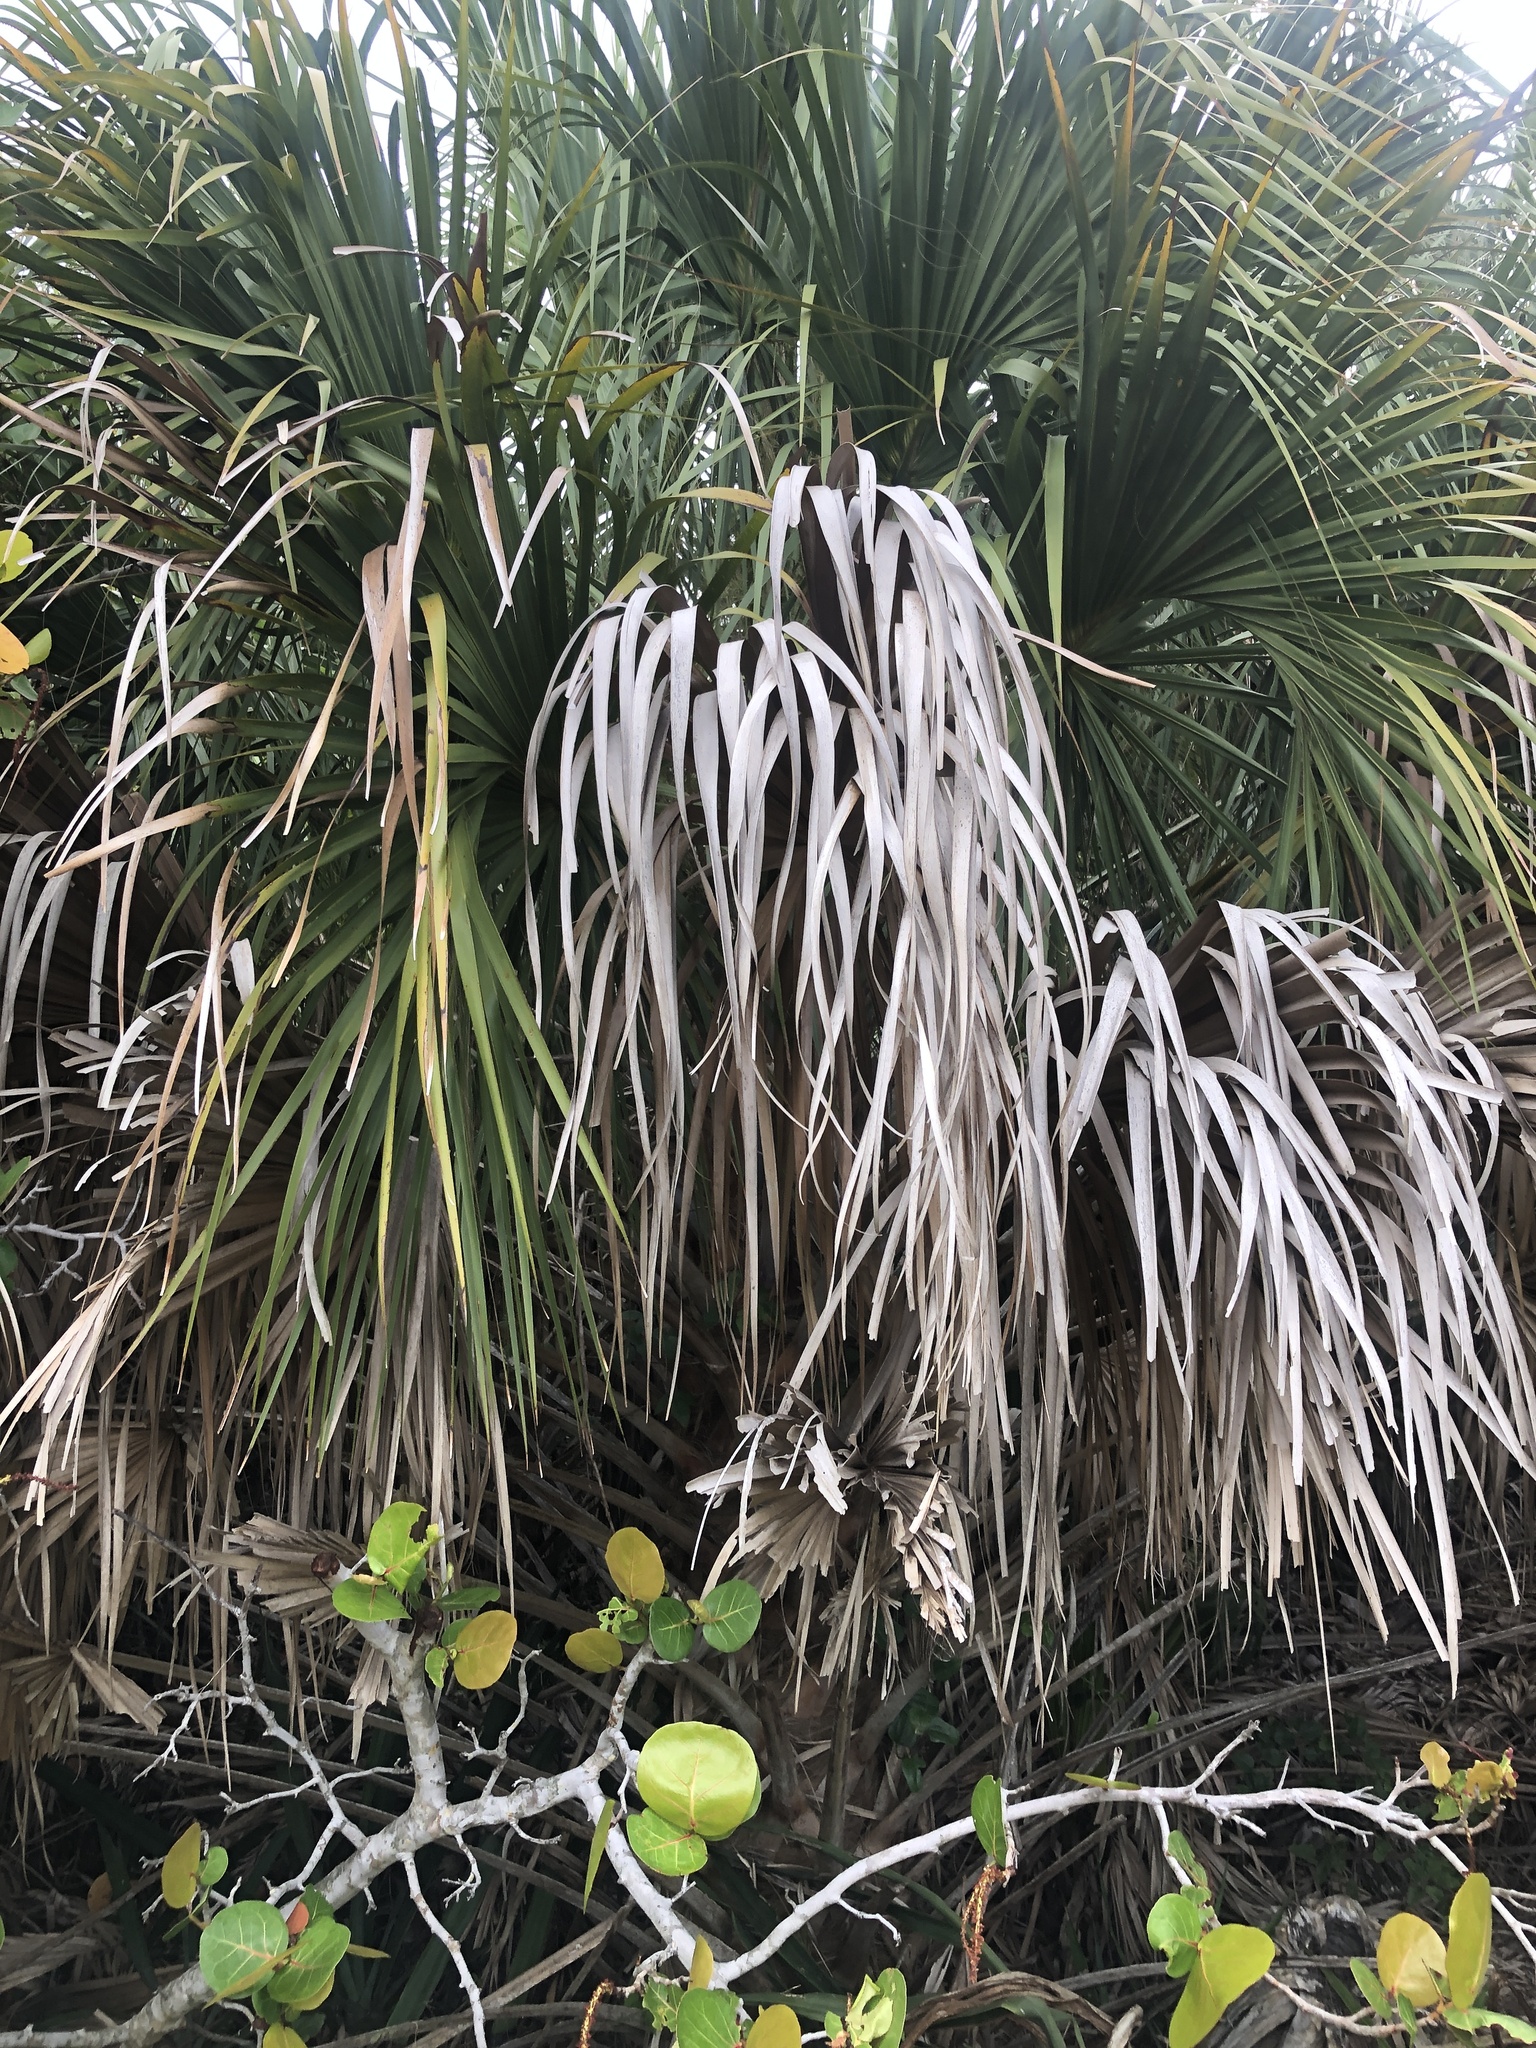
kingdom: Plantae
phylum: Tracheophyta
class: Liliopsida
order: Arecales
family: Arecaceae
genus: Sabal
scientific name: Sabal palmetto
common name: Blue palmetto
